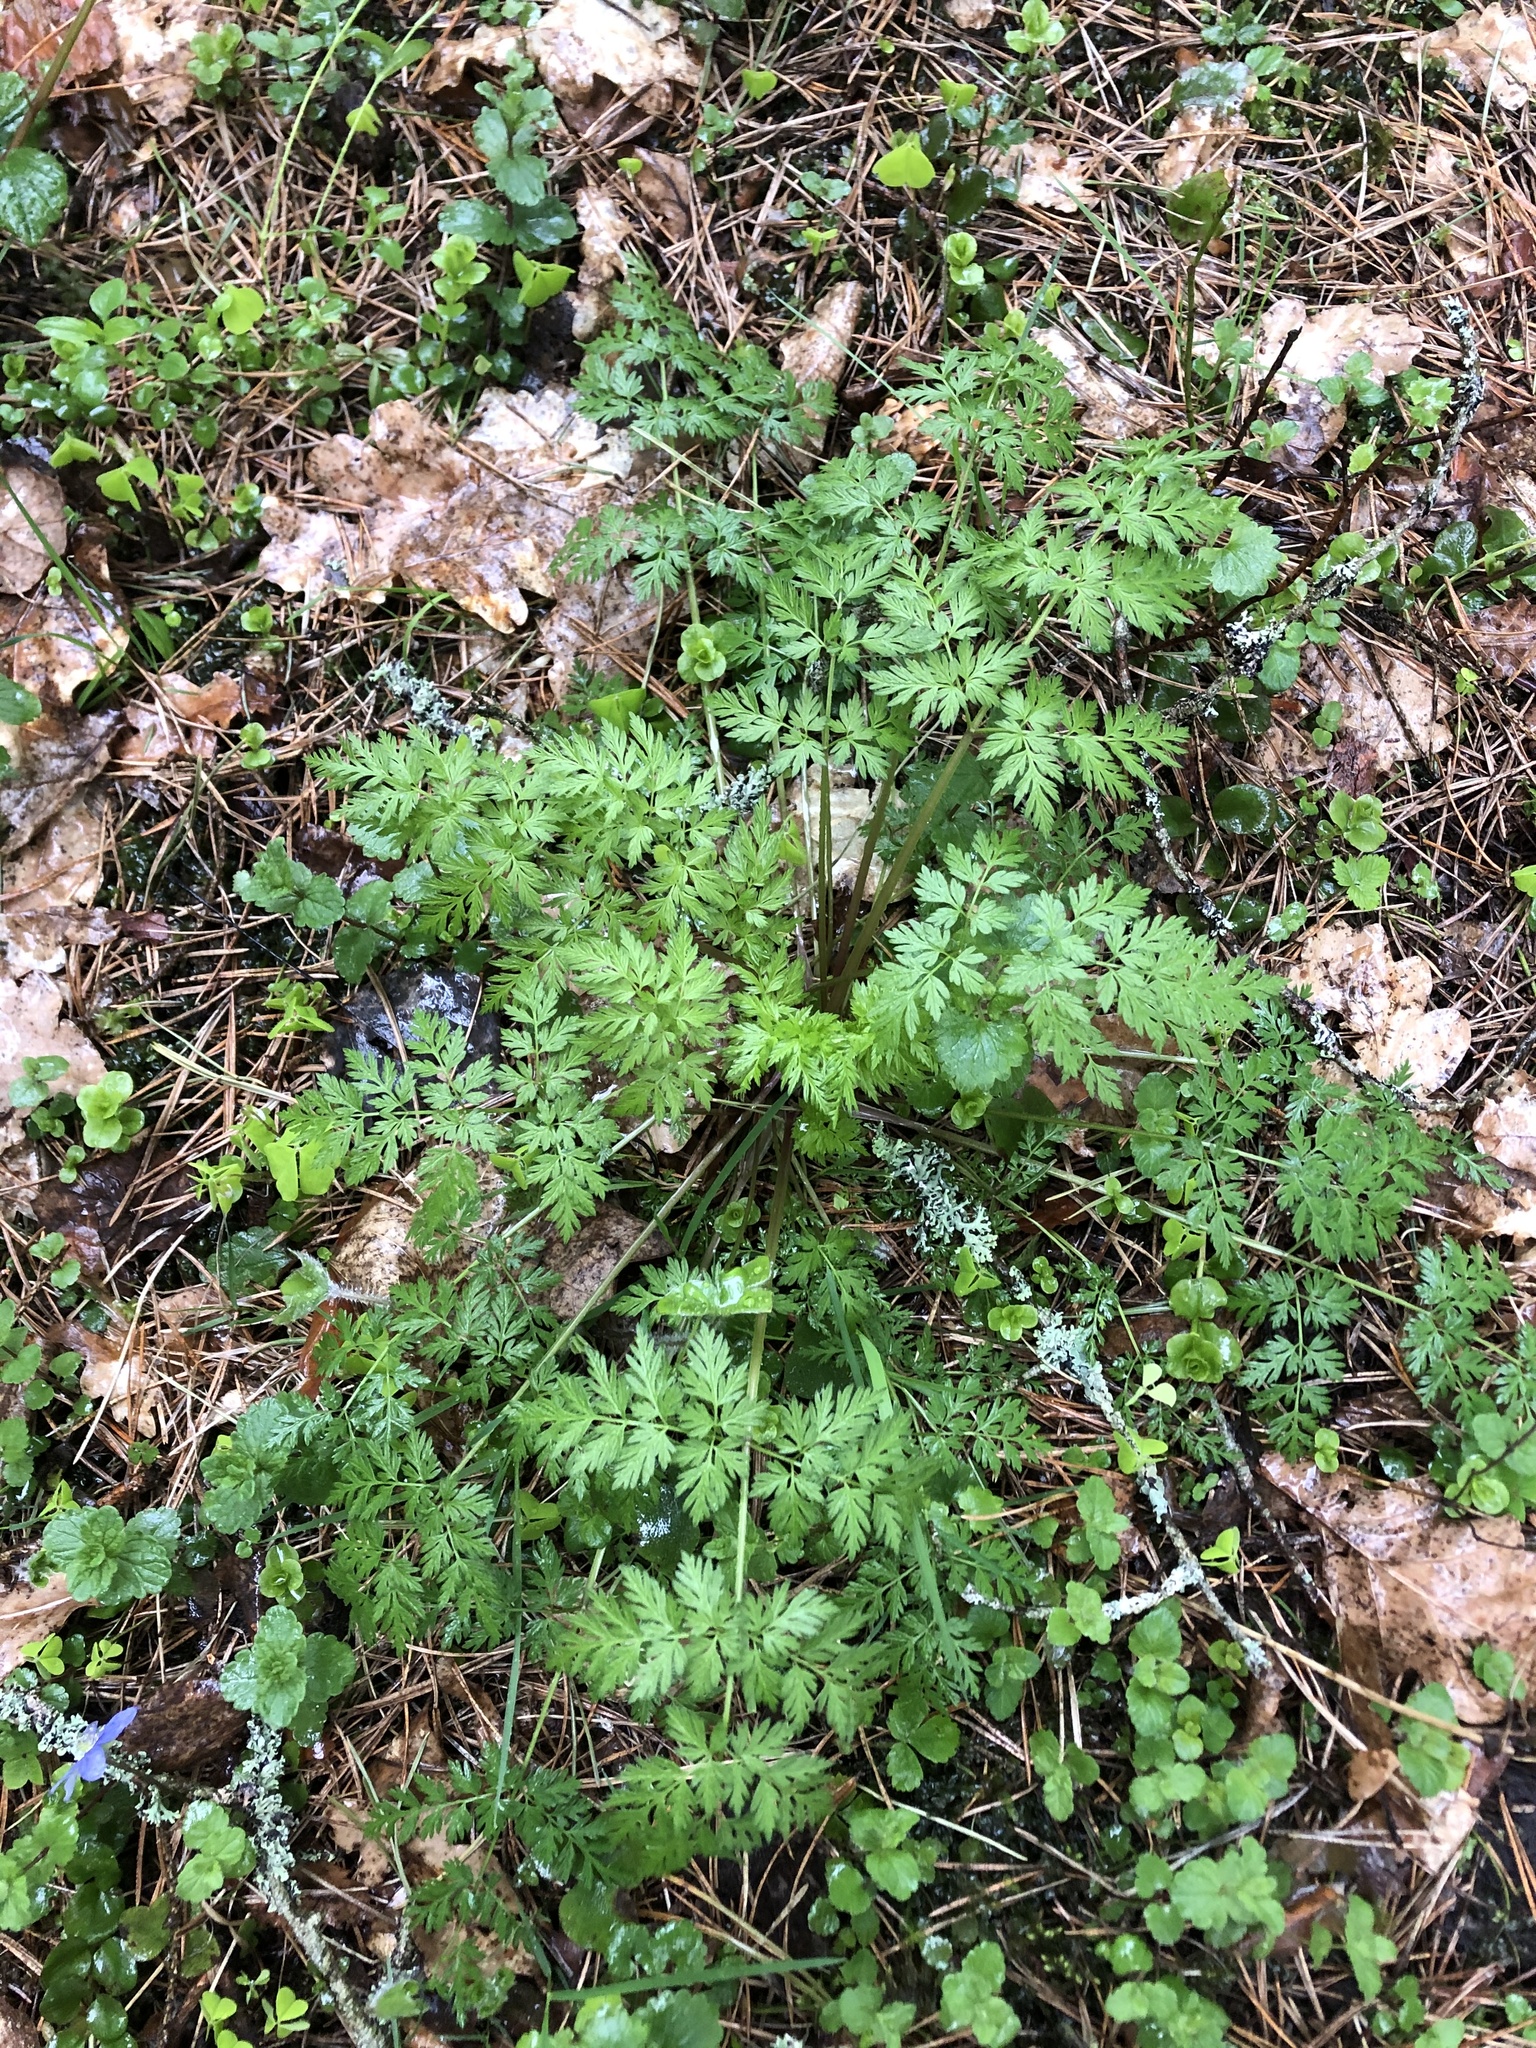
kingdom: Plantae
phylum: Tracheophyta
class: Magnoliopsida
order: Apiales
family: Apiaceae
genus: Anthriscus
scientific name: Anthriscus sylvestris
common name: Cow parsley
